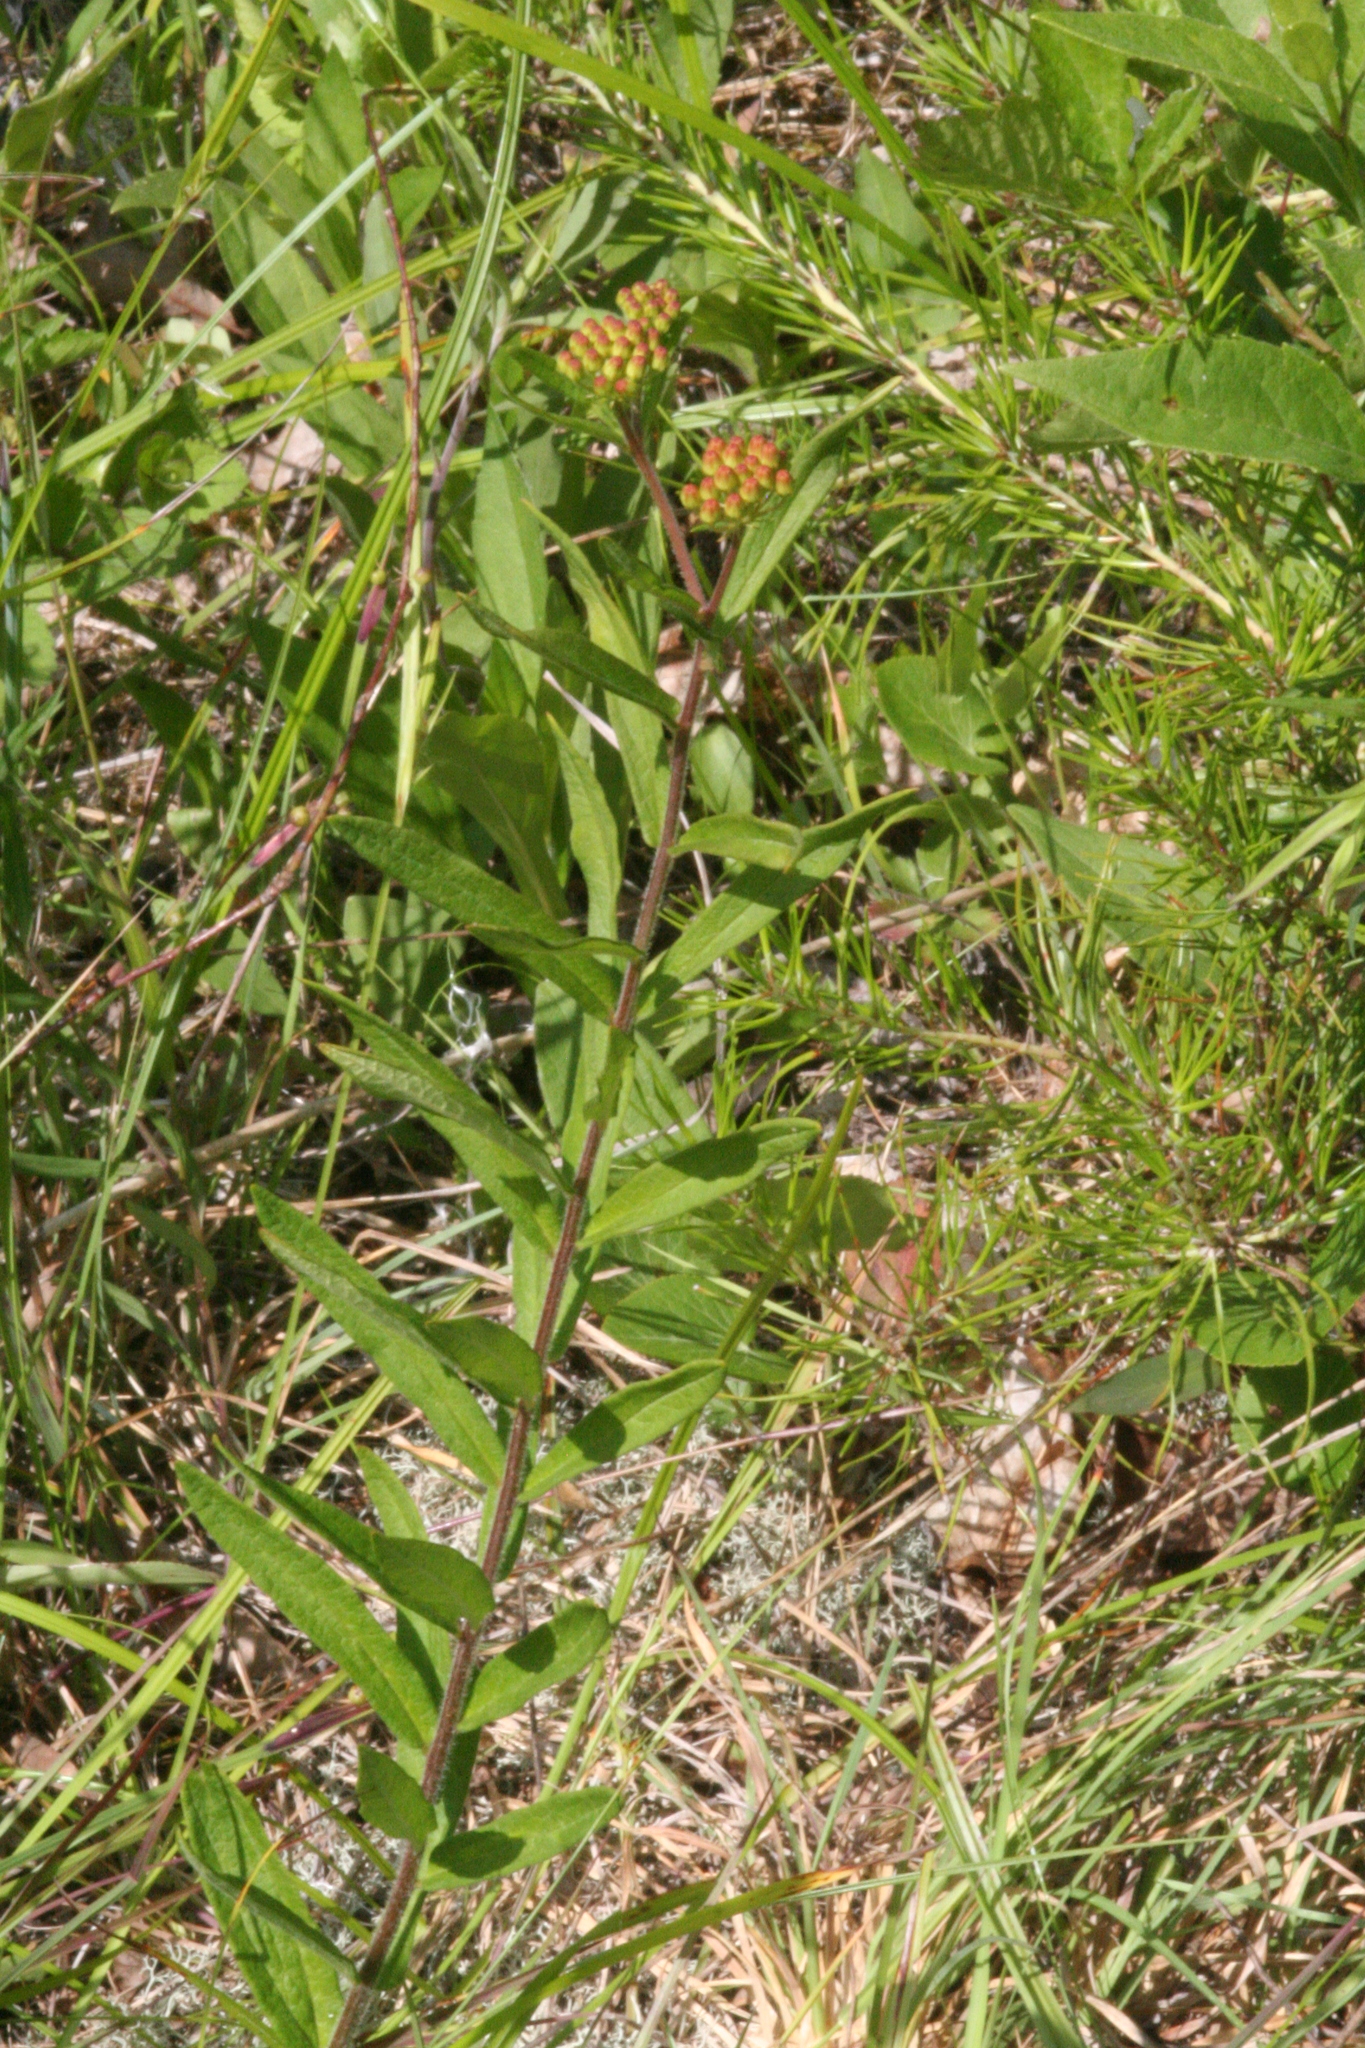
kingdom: Plantae
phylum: Tracheophyta
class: Magnoliopsida
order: Gentianales
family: Apocynaceae
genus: Asclepias
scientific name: Asclepias tuberosa
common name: Butterfly milkweed
